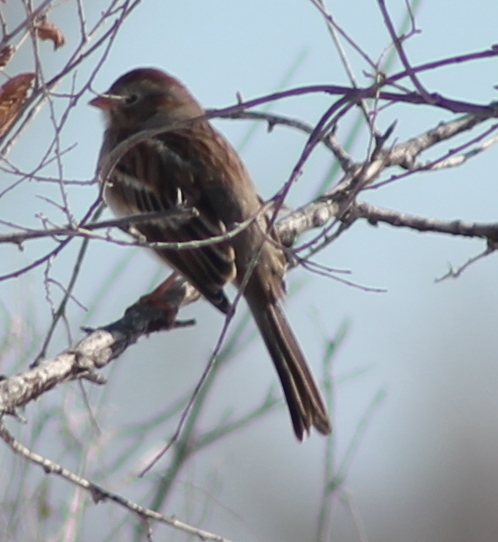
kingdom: Animalia
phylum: Chordata
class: Aves
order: Passeriformes
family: Passerellidae
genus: Spizella
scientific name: Spizella pusilla
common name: Field sparrow
